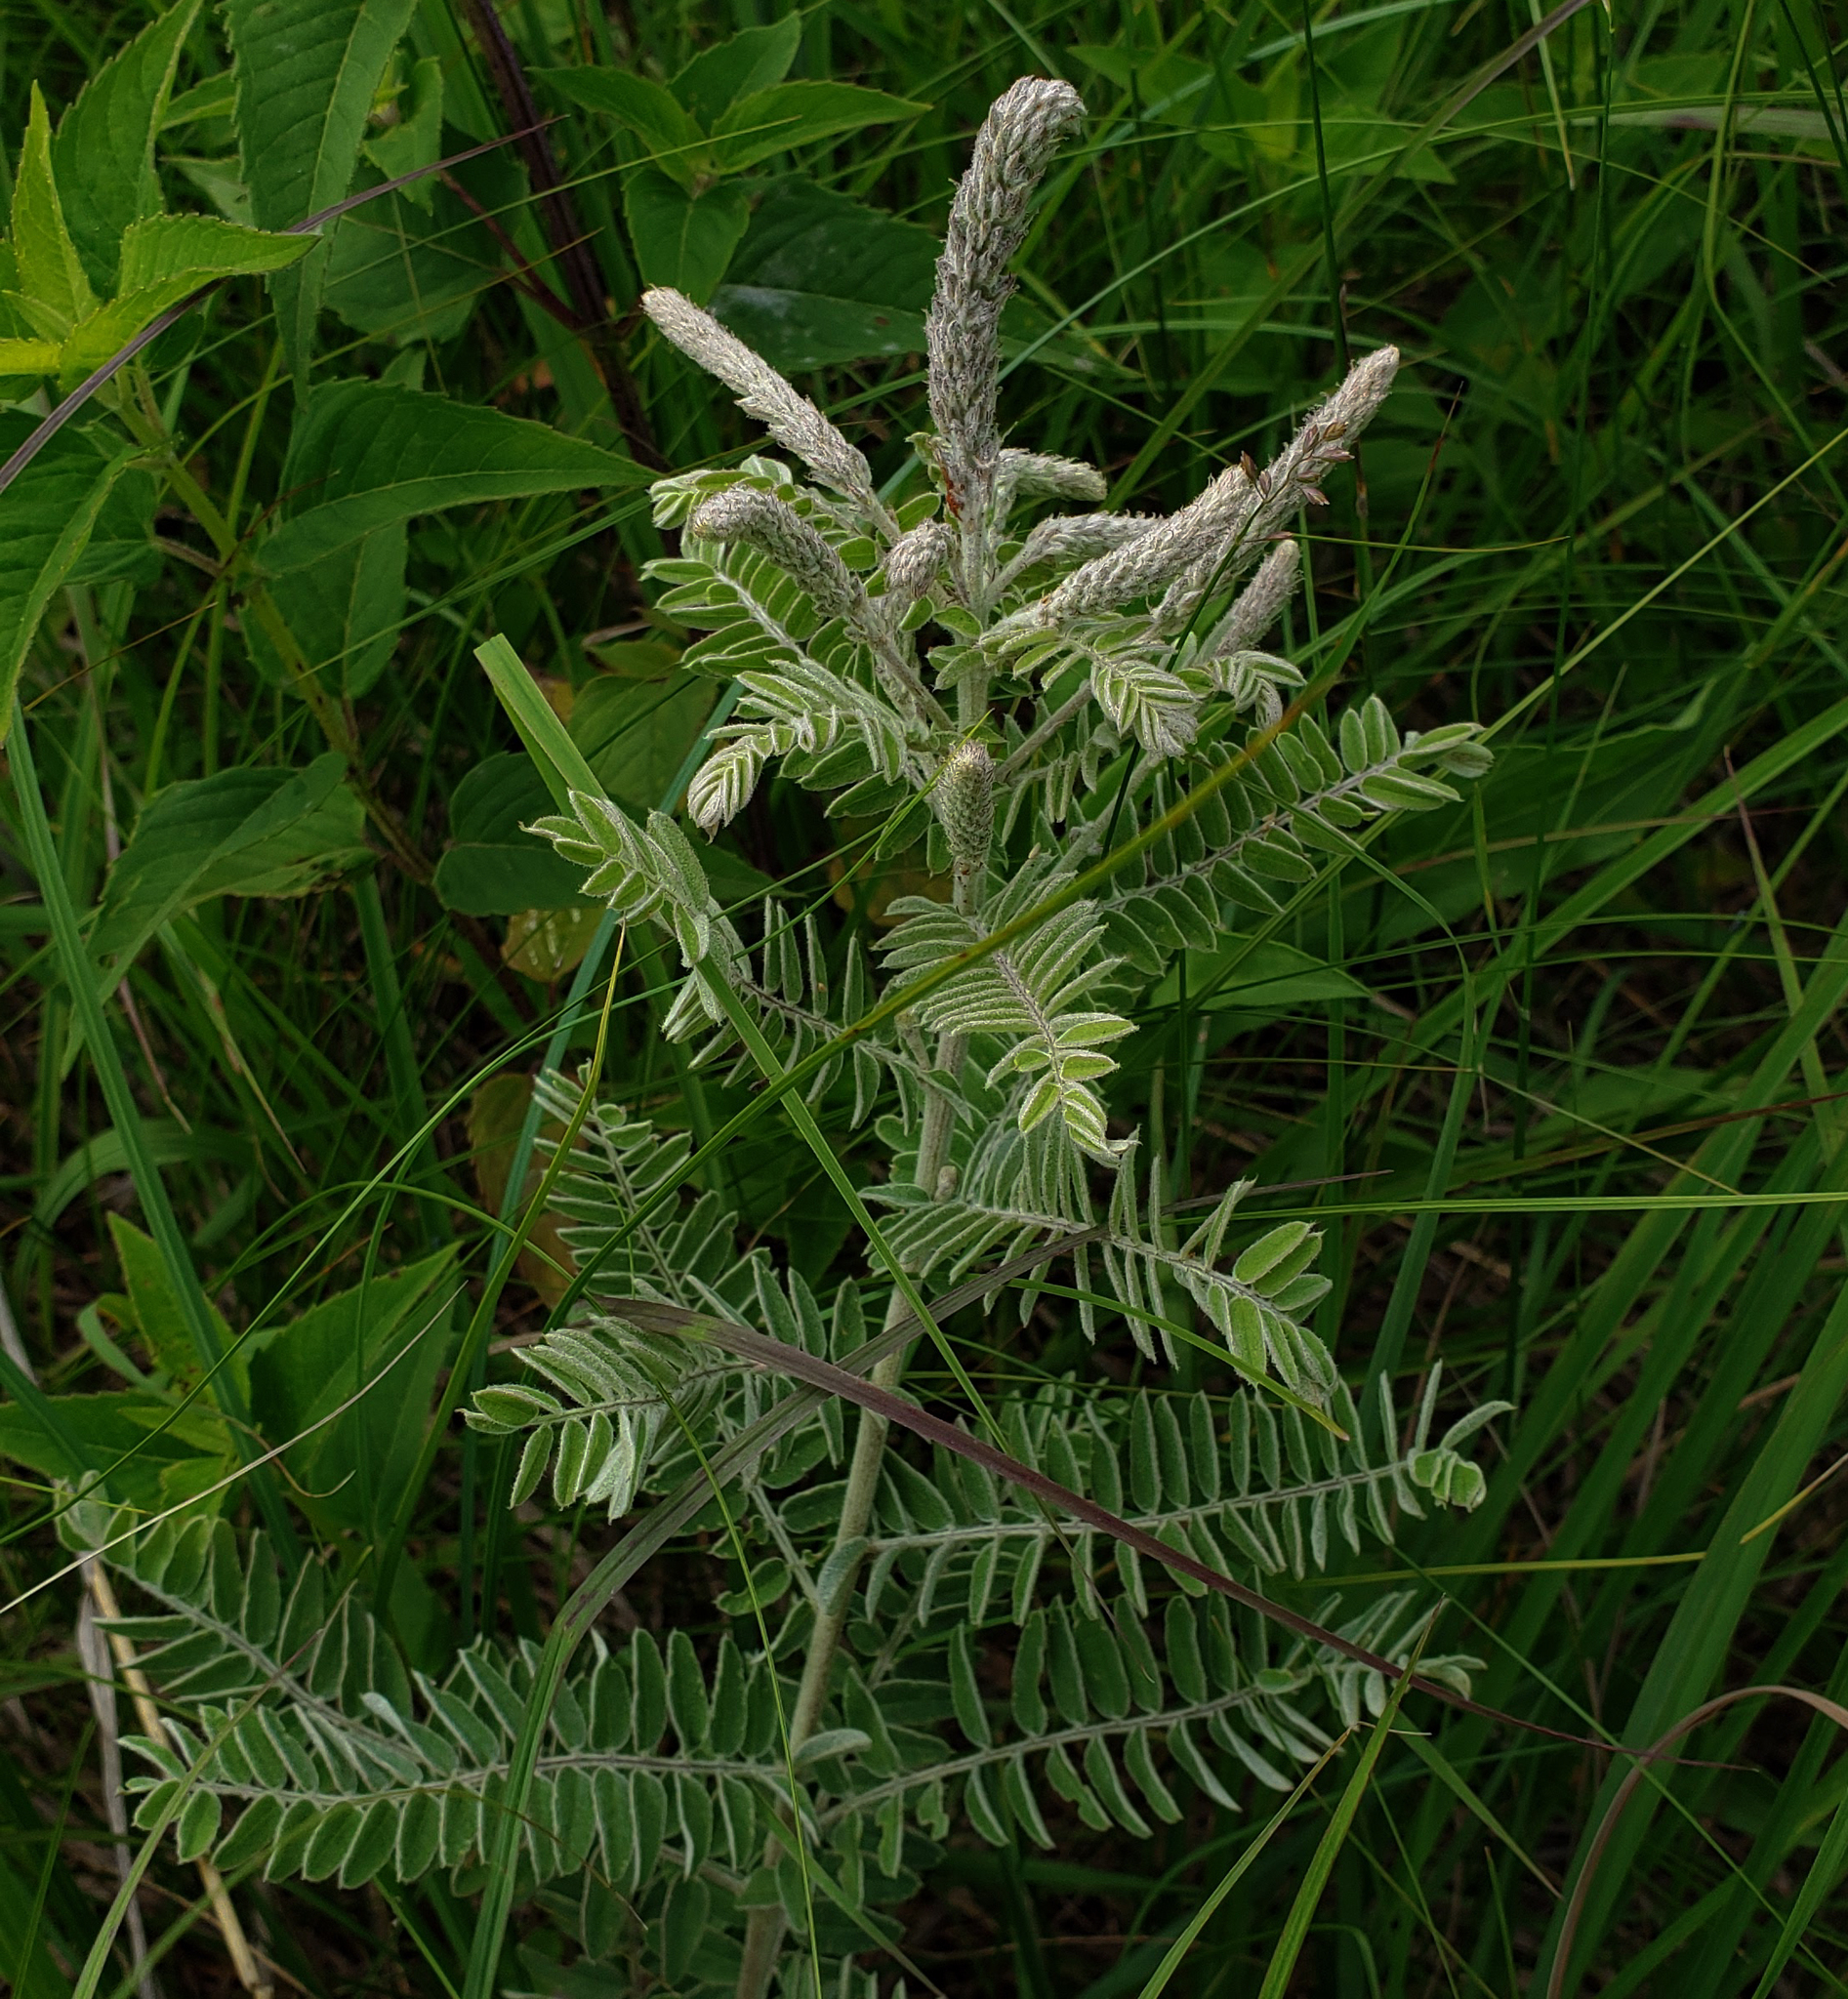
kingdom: Plantae
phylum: Tracheophyta
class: Magnoliopsida
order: Fabales
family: Fabaceae
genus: Amorpha
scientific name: Amorpha canescens
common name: Leadplant
